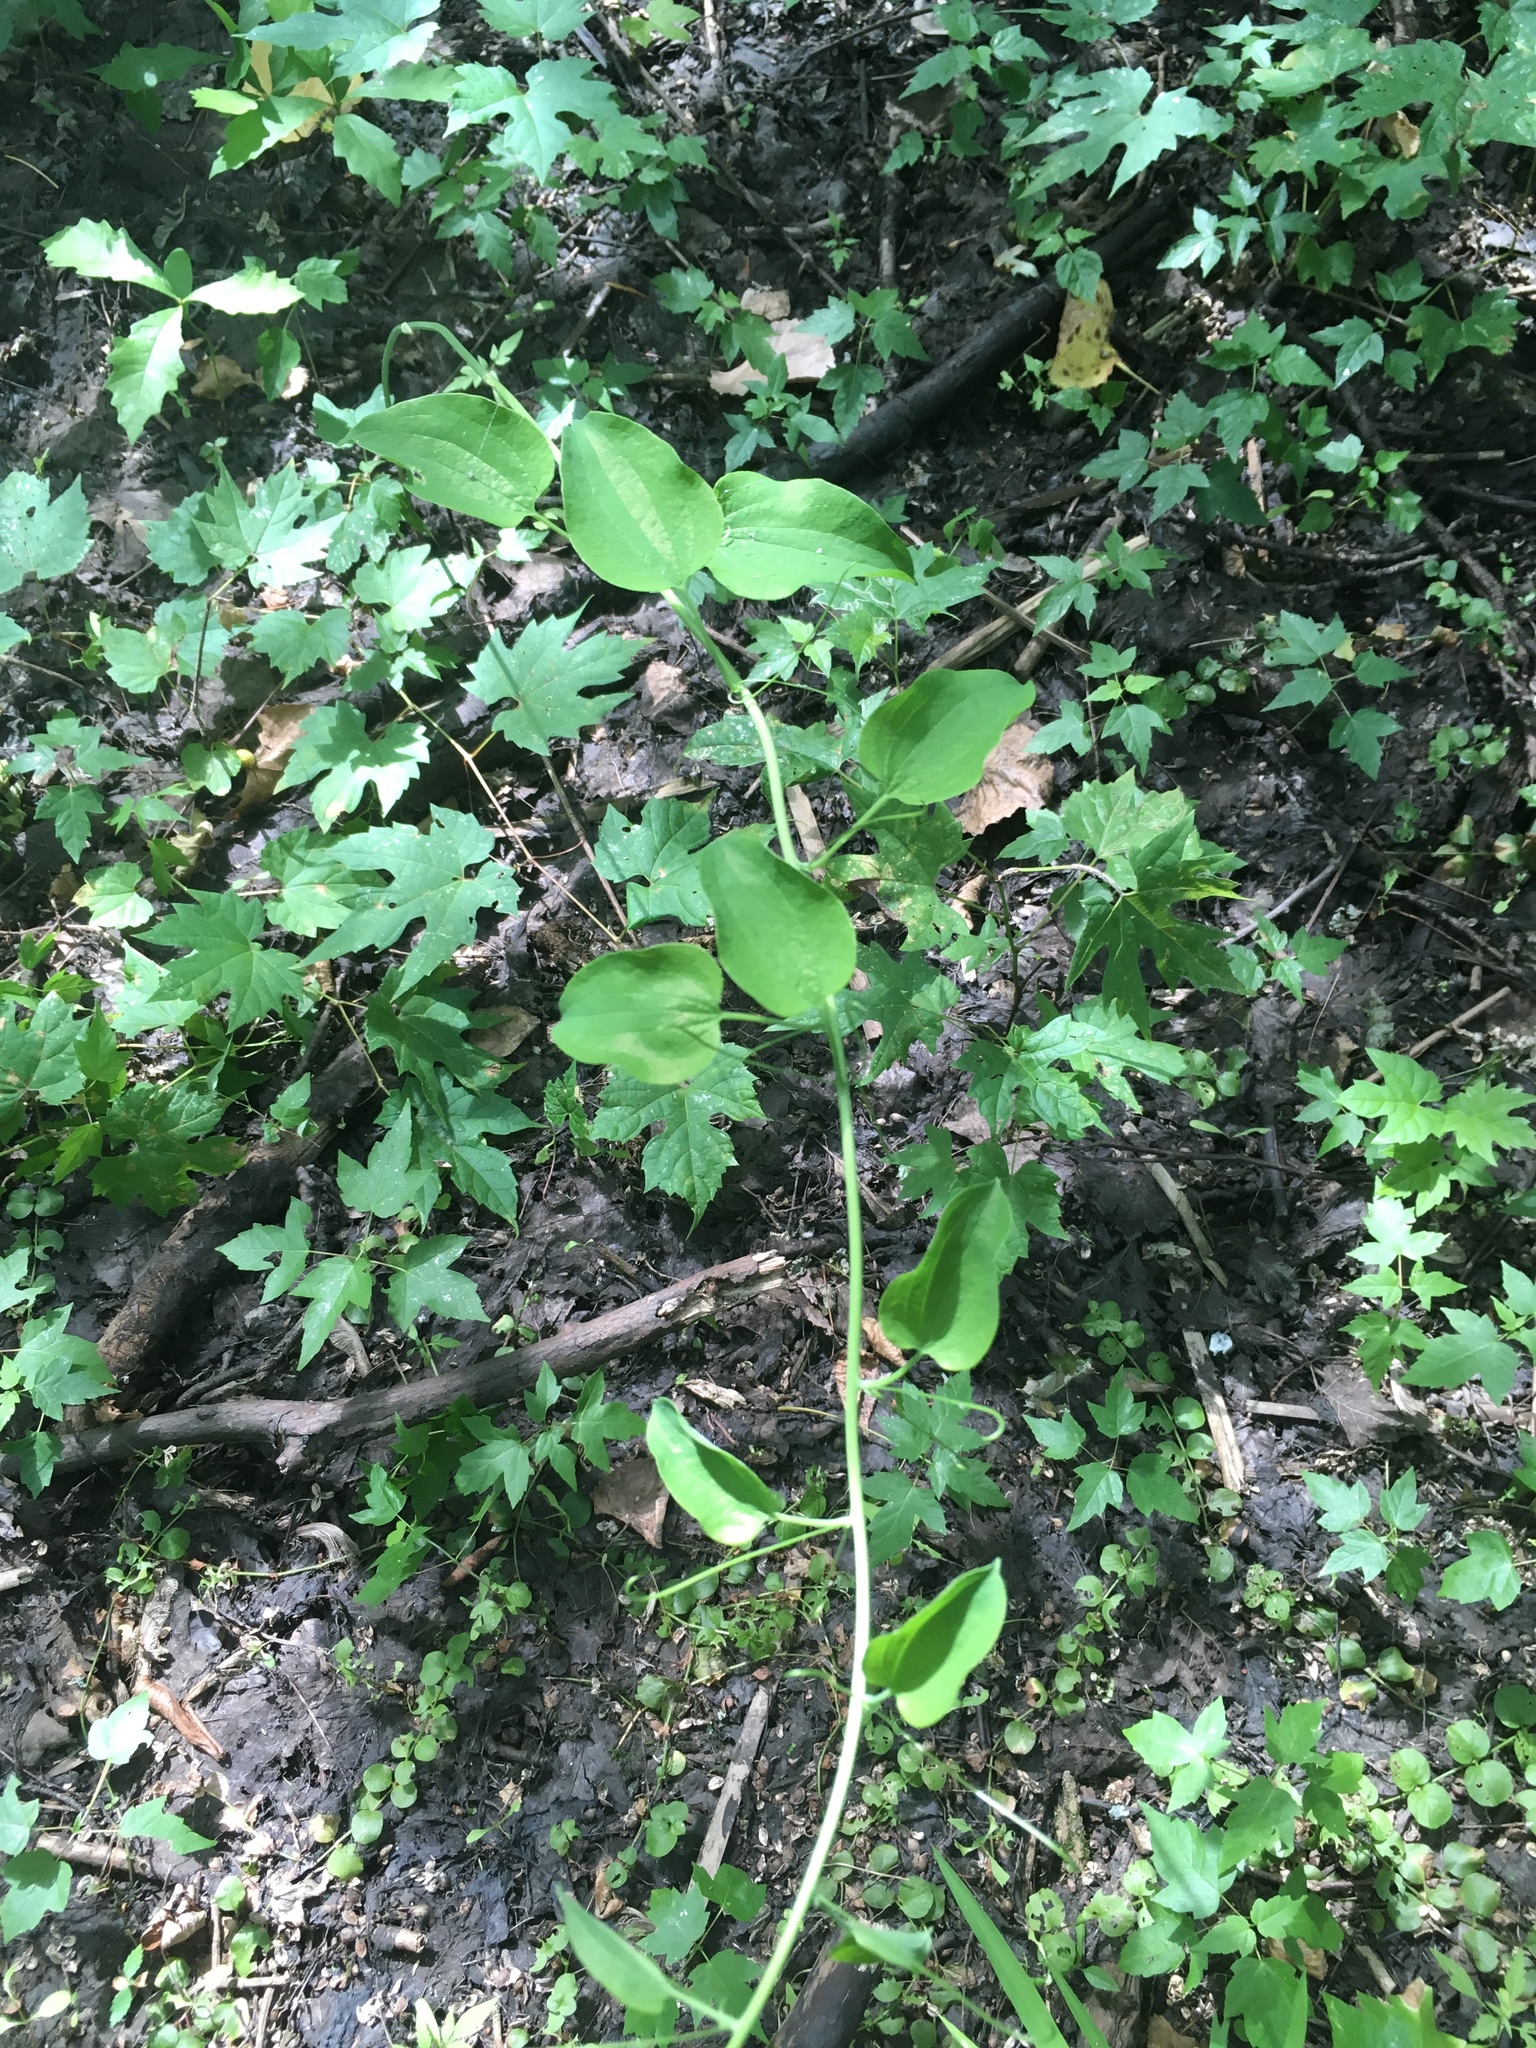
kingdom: Plantae
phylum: Tracheophyta
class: Liliopsida
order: Liliales
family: Smilacaceae
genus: Smilax
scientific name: Smilax herbacea
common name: Jacob's-ladder
